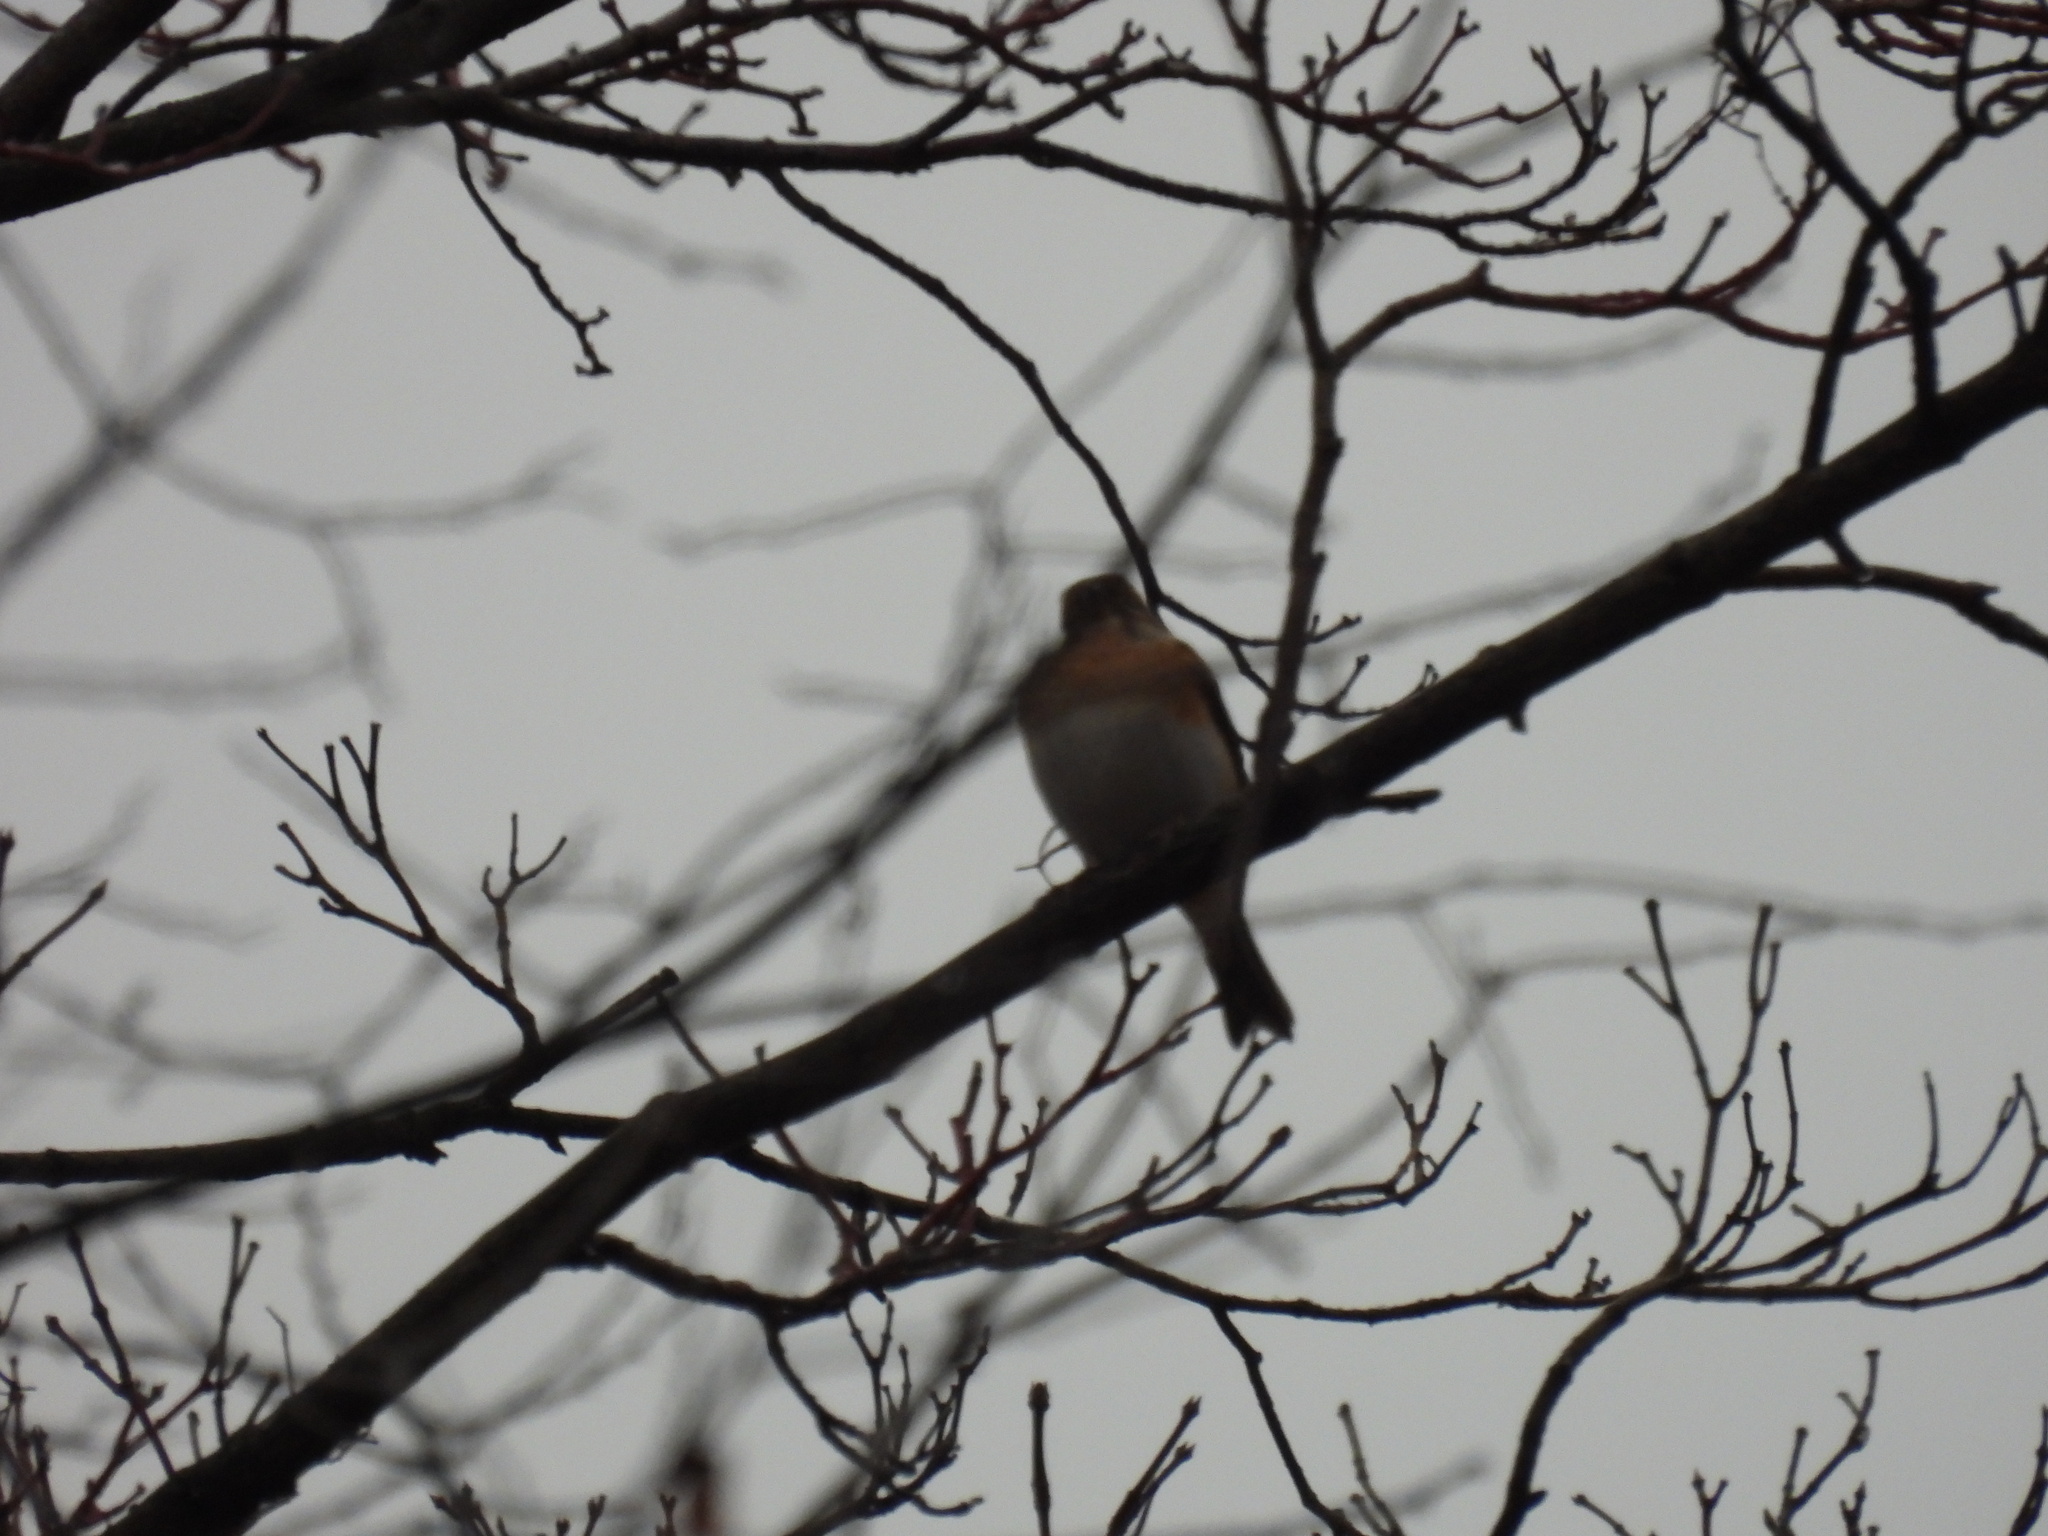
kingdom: Animalia
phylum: Chordata
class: Aves
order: Passeriformes
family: Fringillidae
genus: Fringilla
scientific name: Fringilla montifringilla
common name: Brambling
